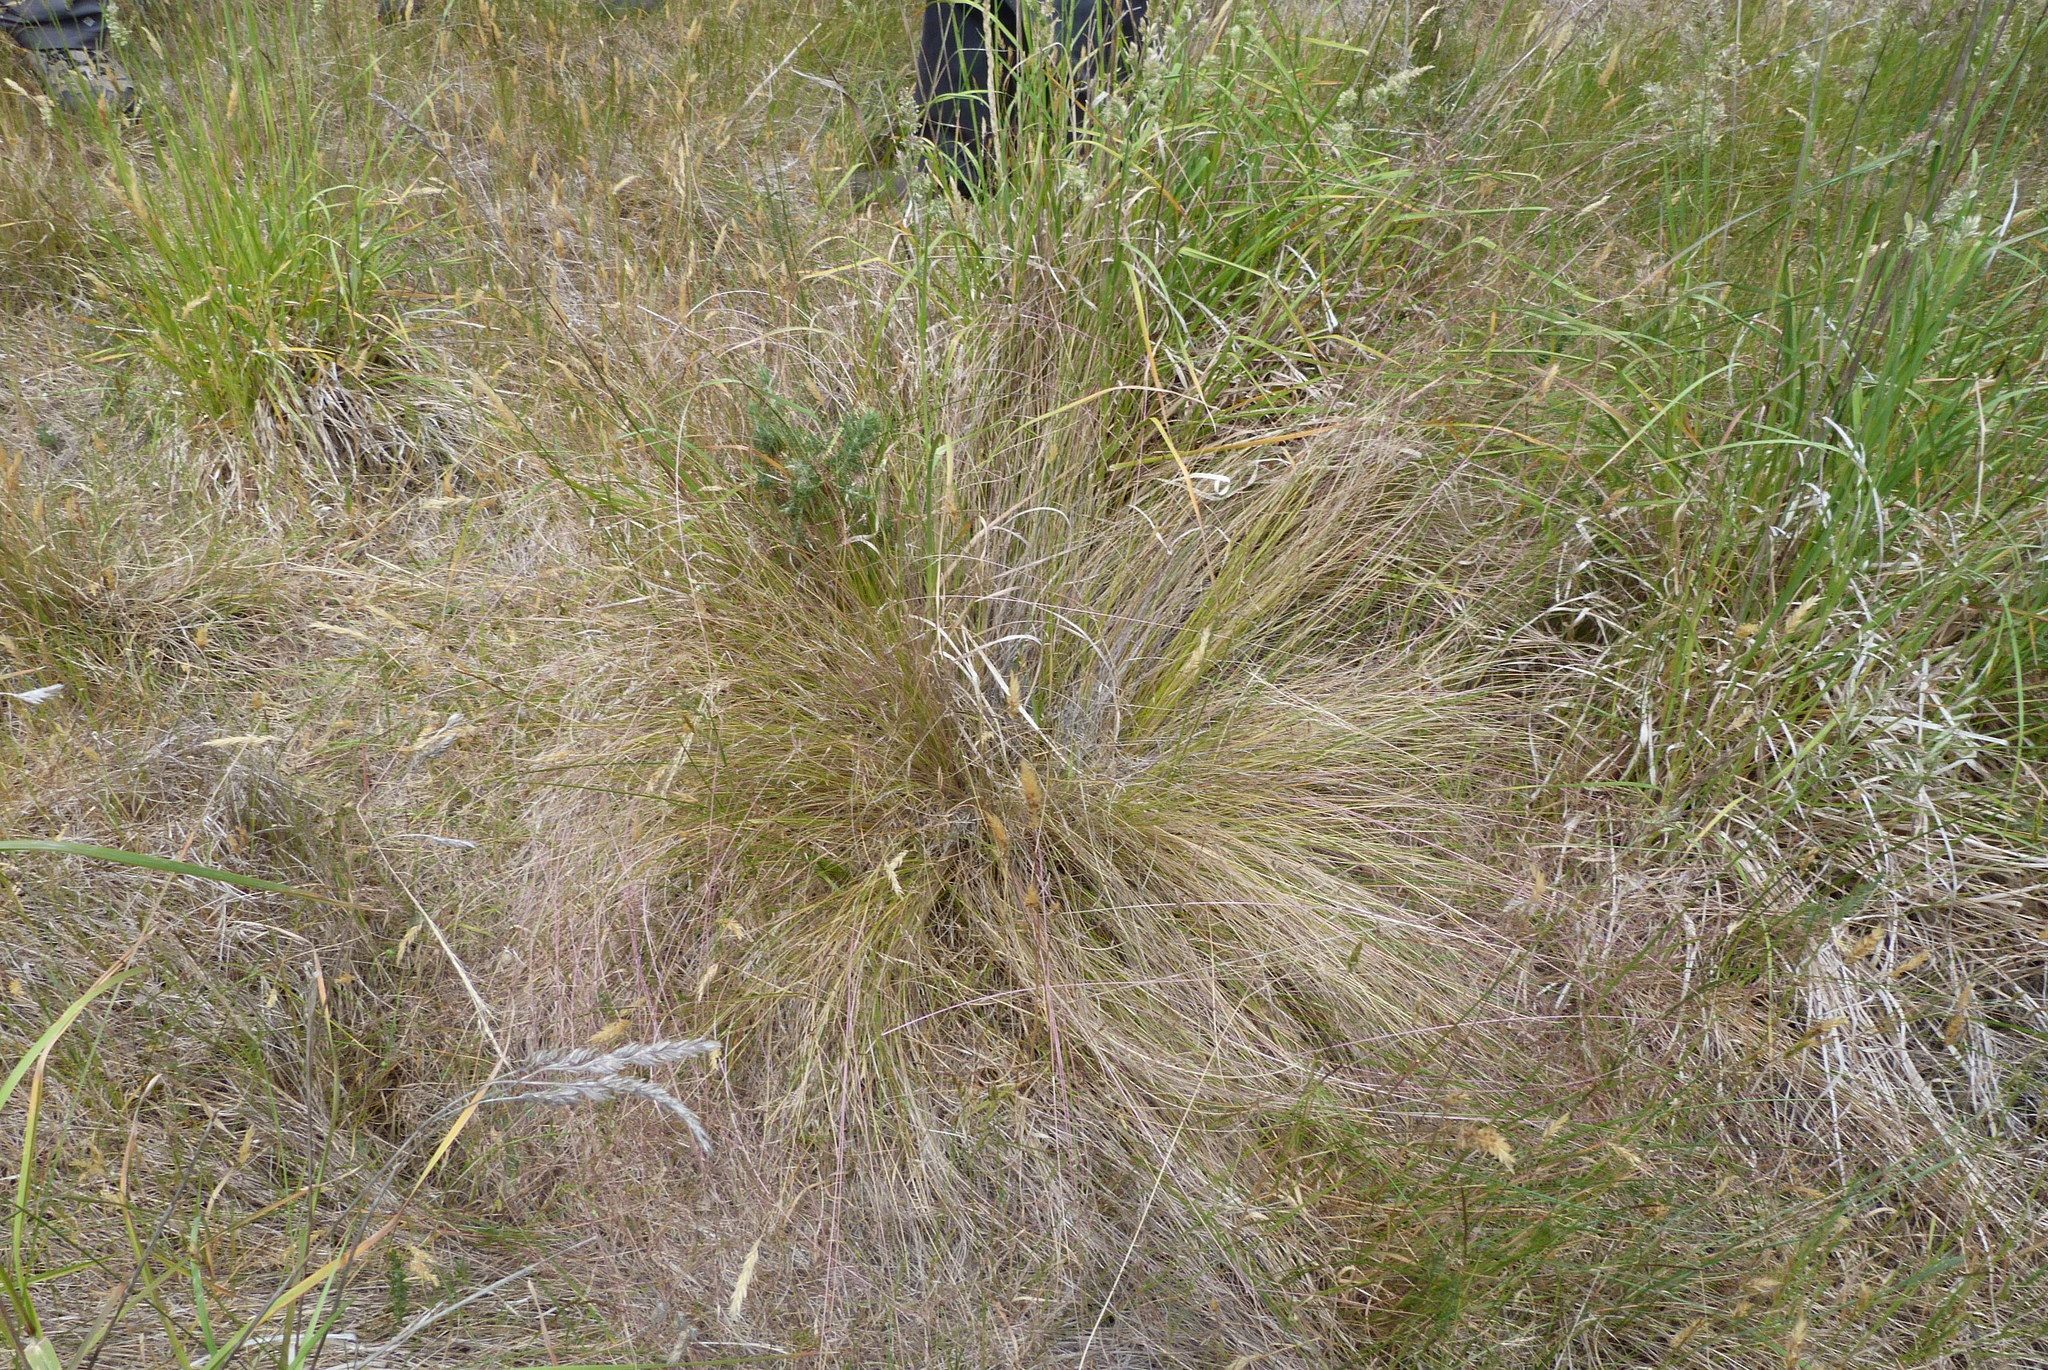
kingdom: Plantae
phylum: Tracheophyta
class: Liliopsida
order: Poales
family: Poaceae
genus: Nassella
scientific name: Nassella trichotoma
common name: Serrated tussock grass
